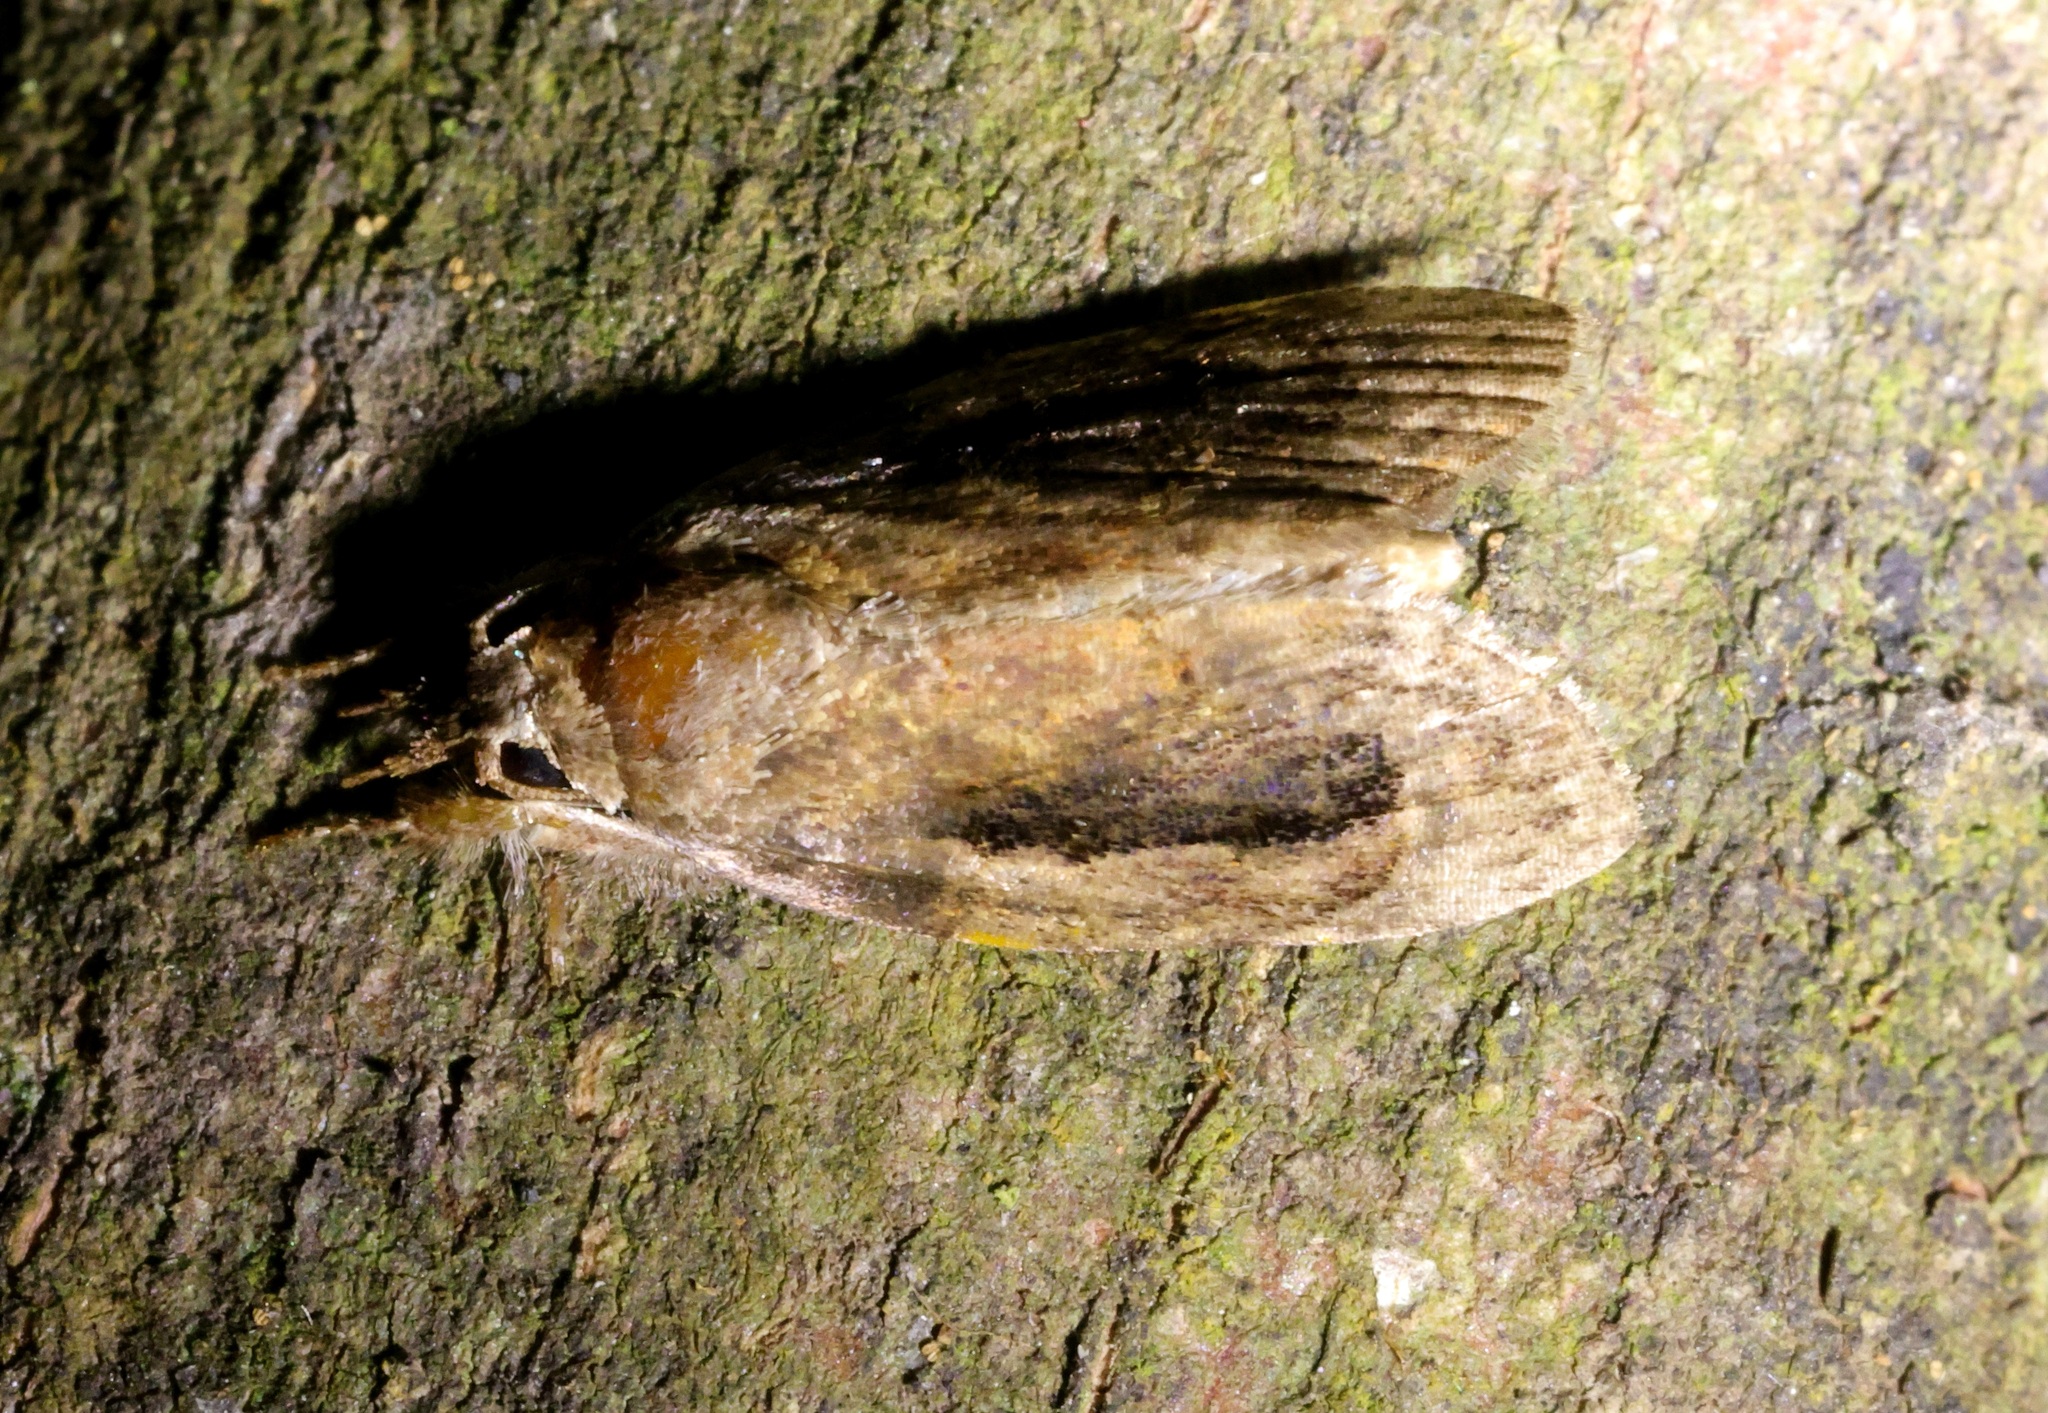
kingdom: Animalia
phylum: Arthropoda
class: Insecta
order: Lepidoptera
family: Nolidae
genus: Selepa
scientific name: Selepa discigera
